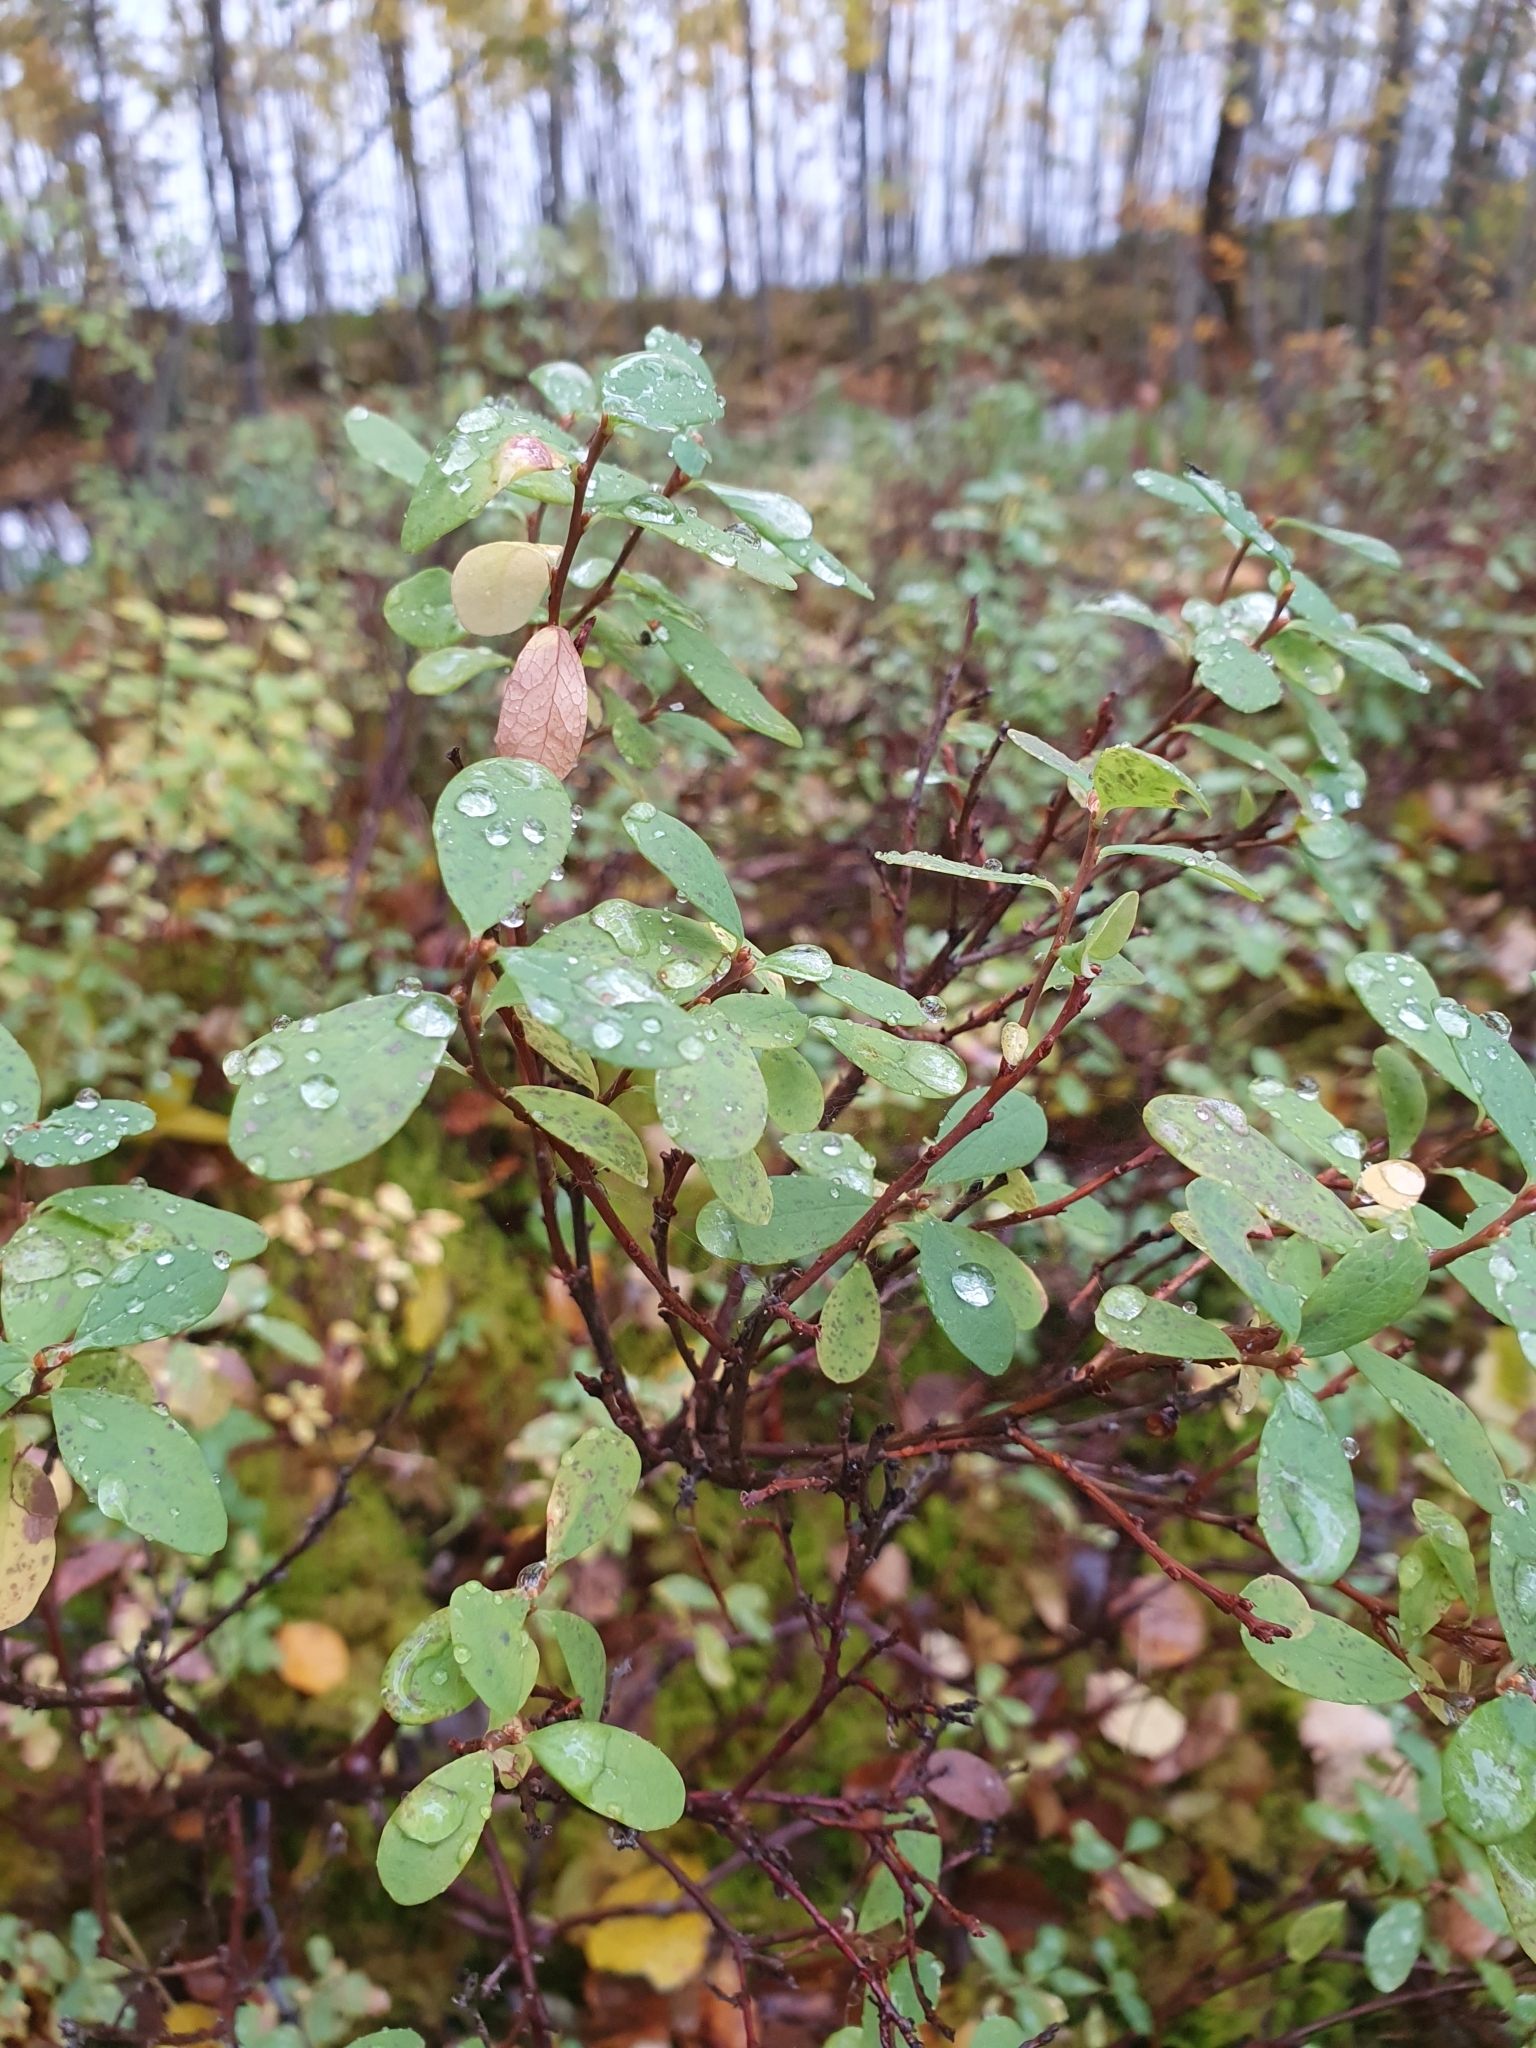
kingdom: Plantae
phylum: Tracheophyta
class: Magnoliopsida
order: Ericales
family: Ericaceae
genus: Vaccinium
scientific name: Vaccinium uliginosum
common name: Bog bilberry
